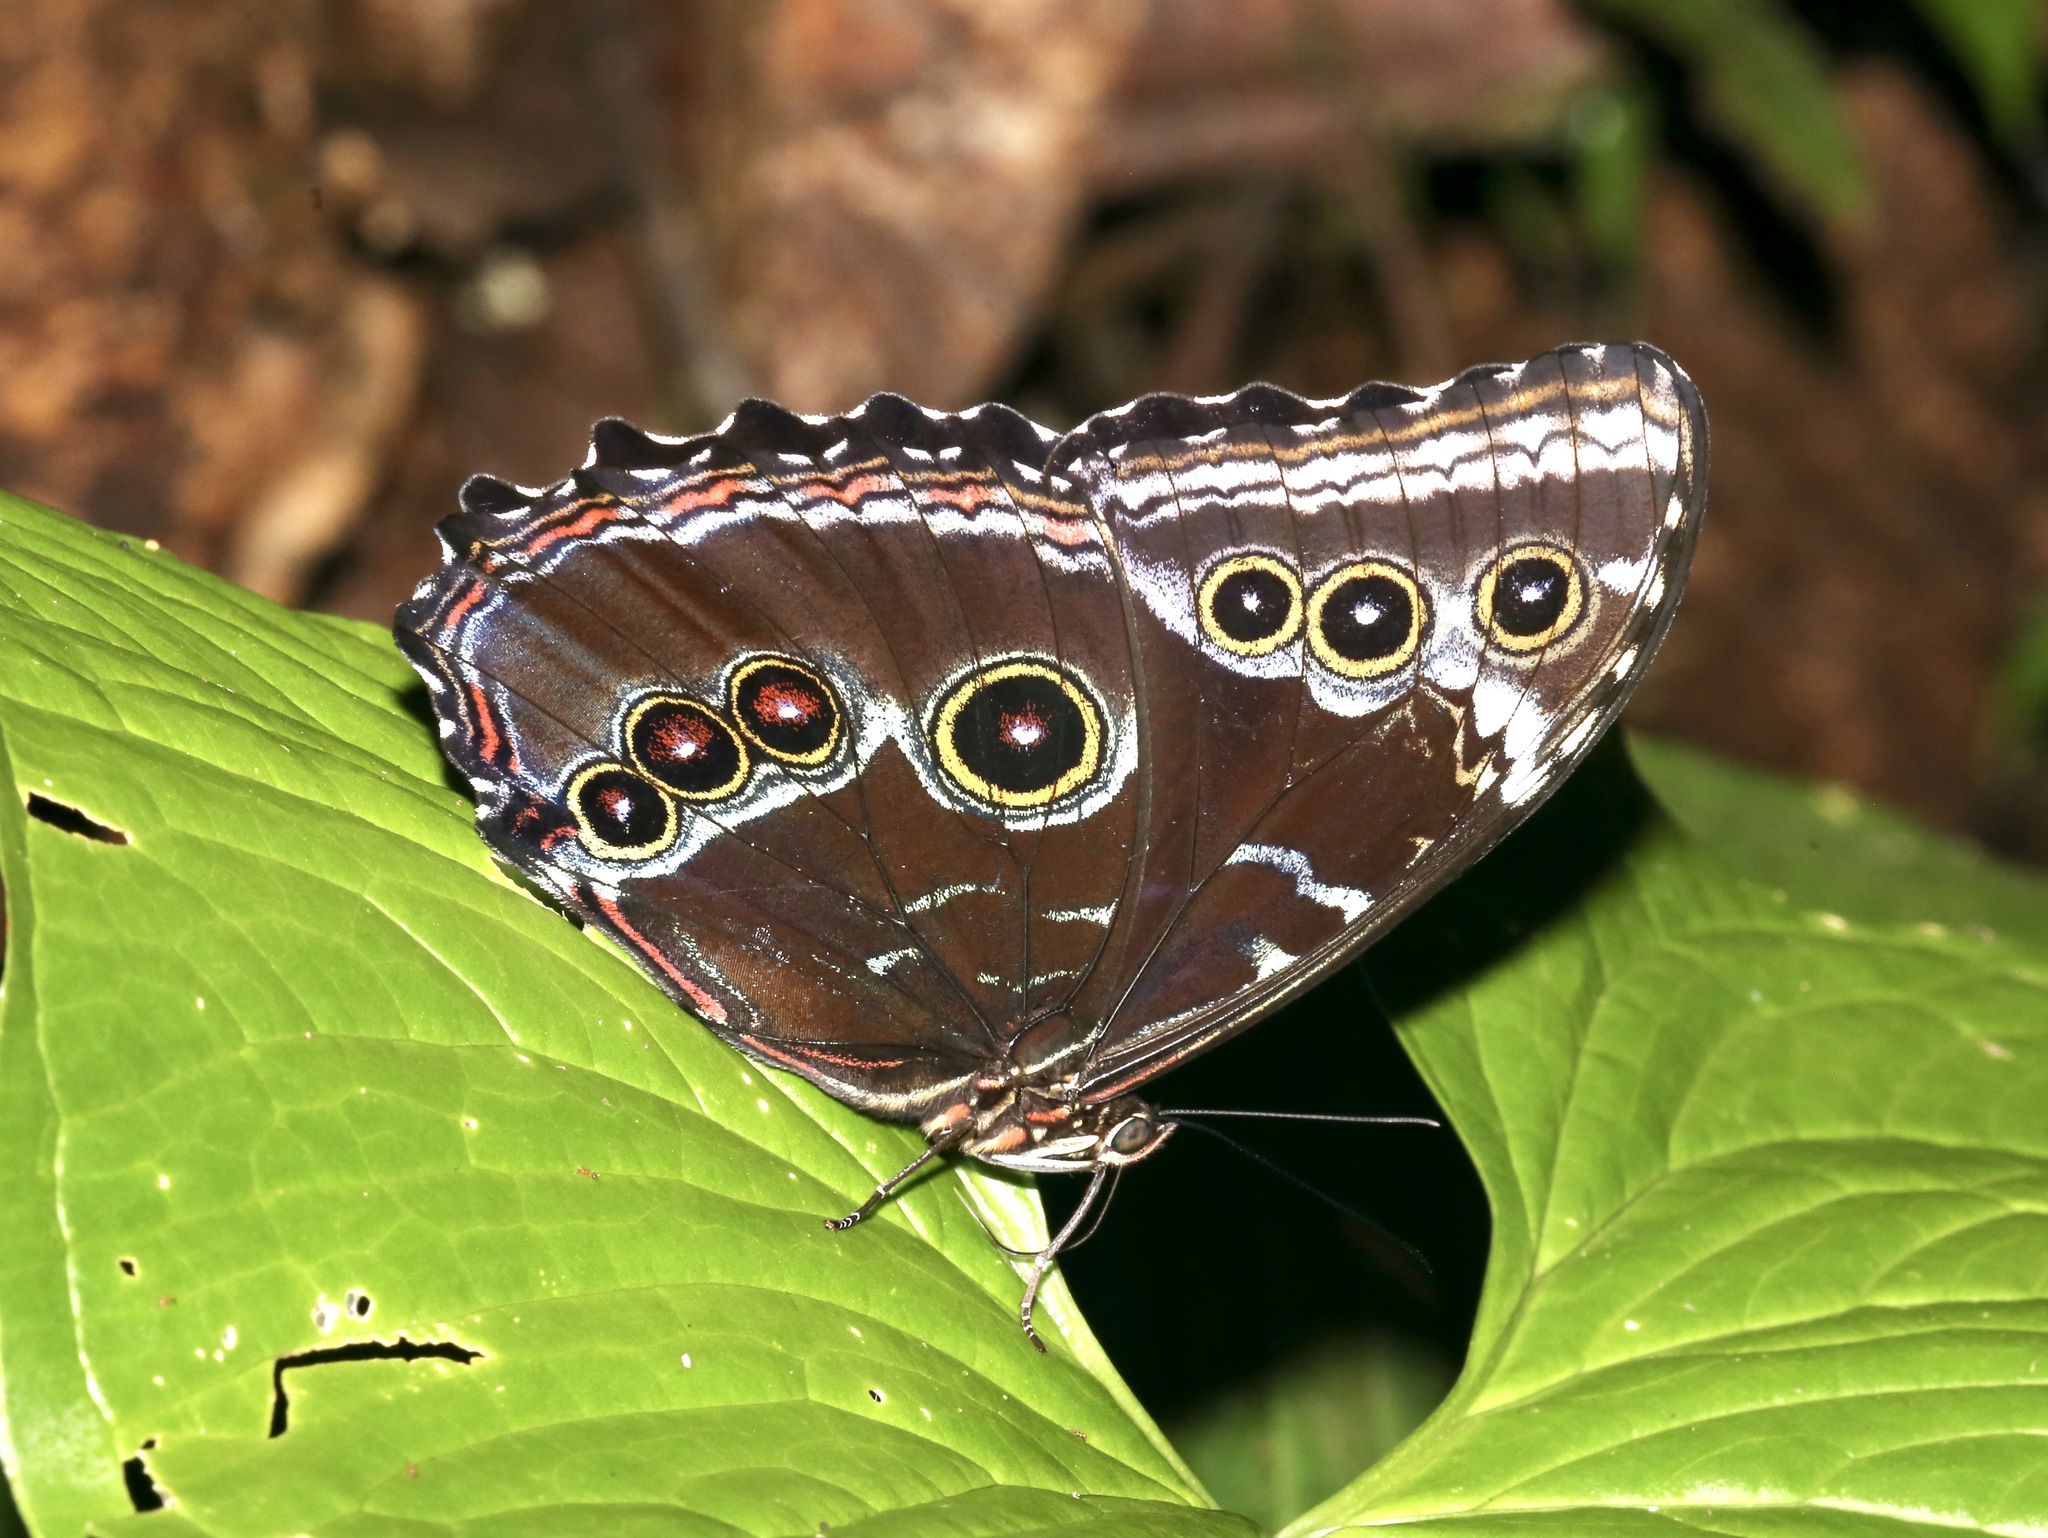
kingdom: Animalia
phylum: Arthropoda
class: Insecta
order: Lepidoptera
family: Nymphalidae
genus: Morpho
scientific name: Morpho helenor
